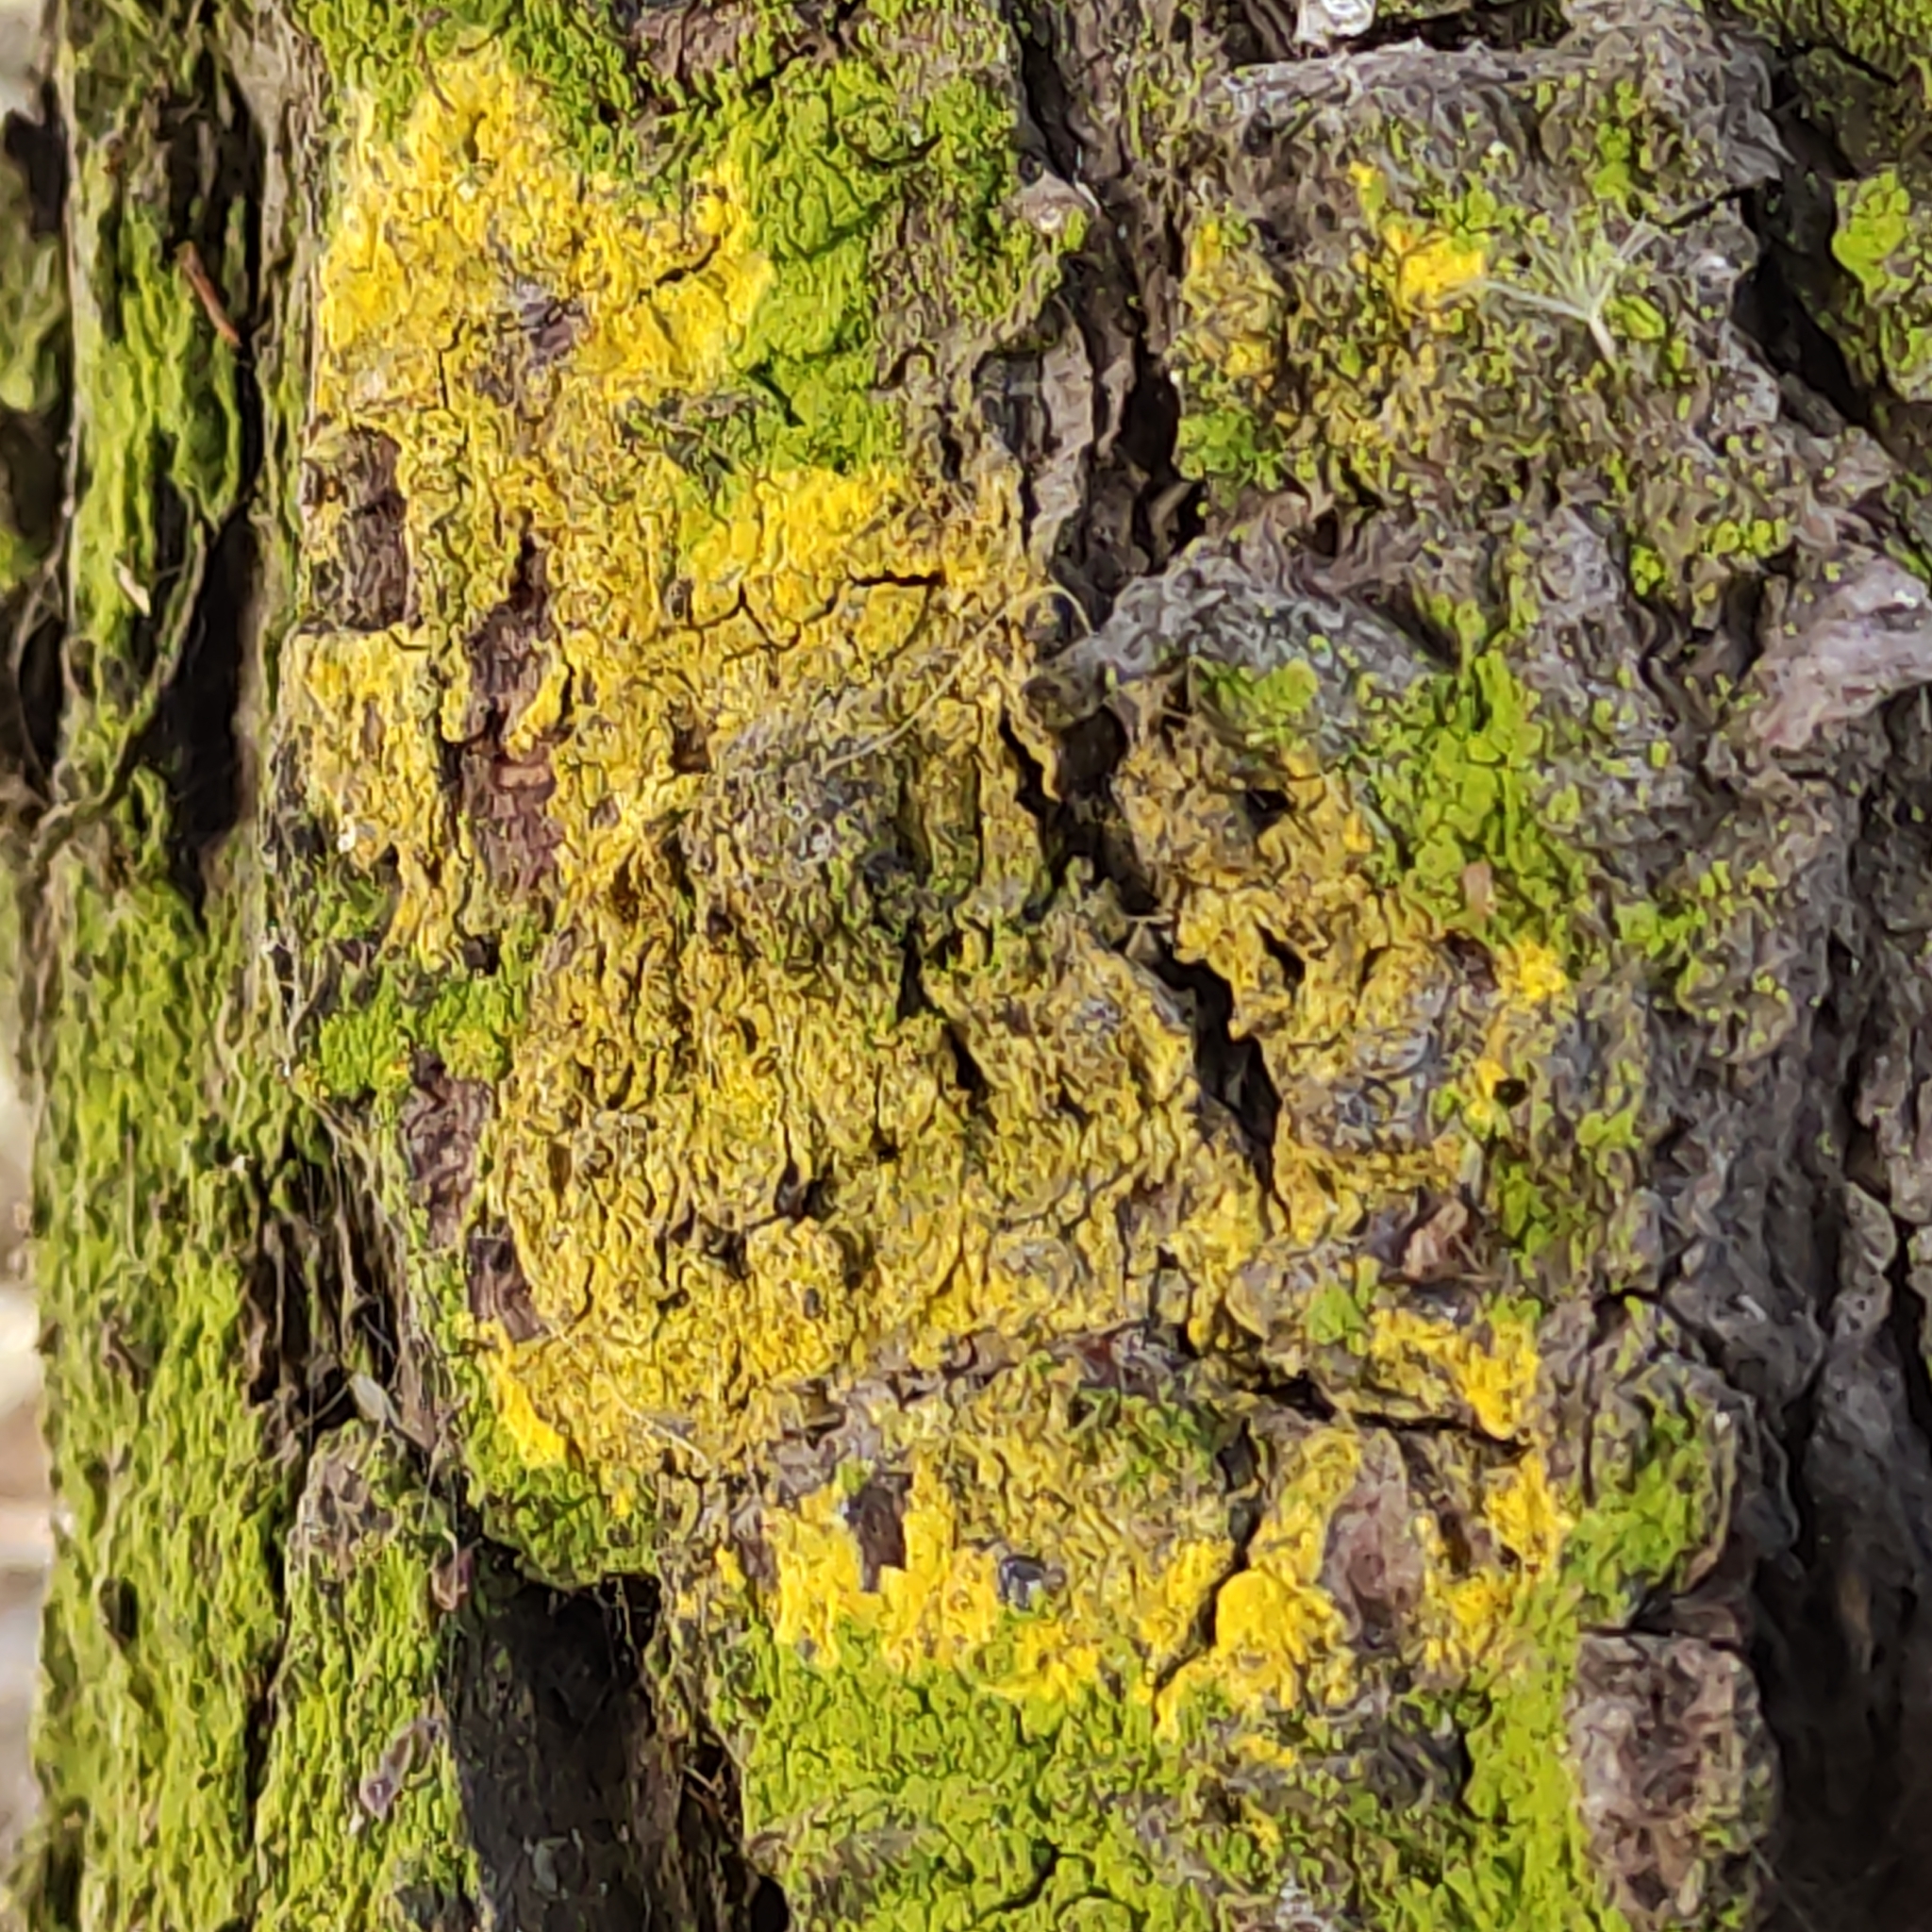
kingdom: Fungi
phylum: Ascomycota
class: Arthoniomycetes
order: Arthoniales
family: Chrysotrichaceae
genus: Chrysothrix
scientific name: Chrysothrix candelaris
